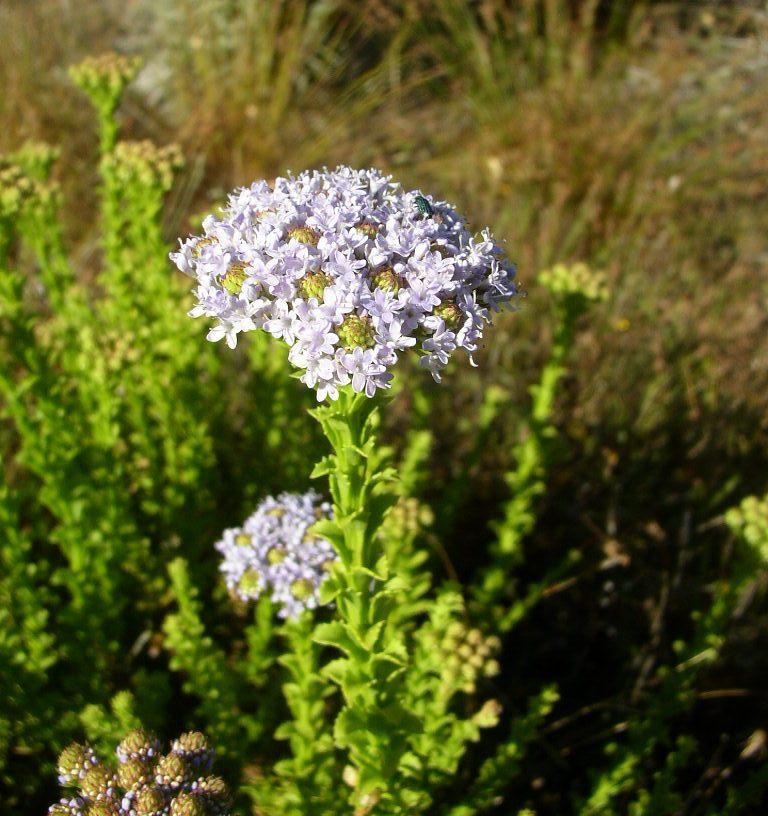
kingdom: Plantae
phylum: Tracheophyta
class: Magnoliopsida
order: Lamiales
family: Scrophulariaceae
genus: Pseudoselago
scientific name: Pseudoselago serrata
